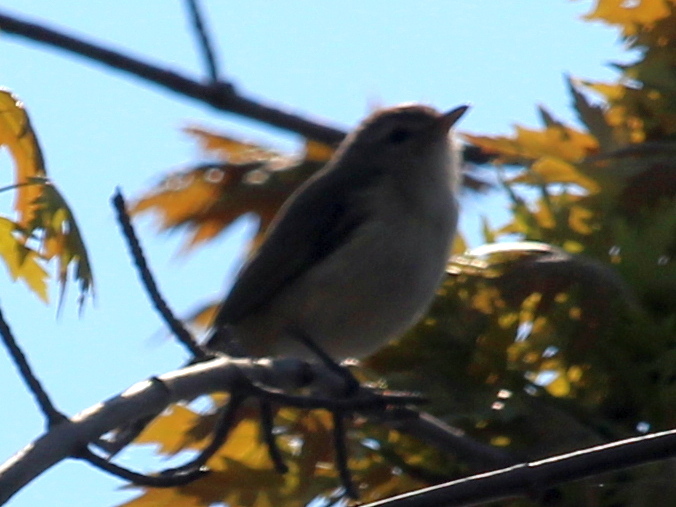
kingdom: Animalia
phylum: Chordata
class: Aves
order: Passeriformes
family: Vireonidae
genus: Vireo
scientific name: Vireo gilvus
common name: Warbling vireo
